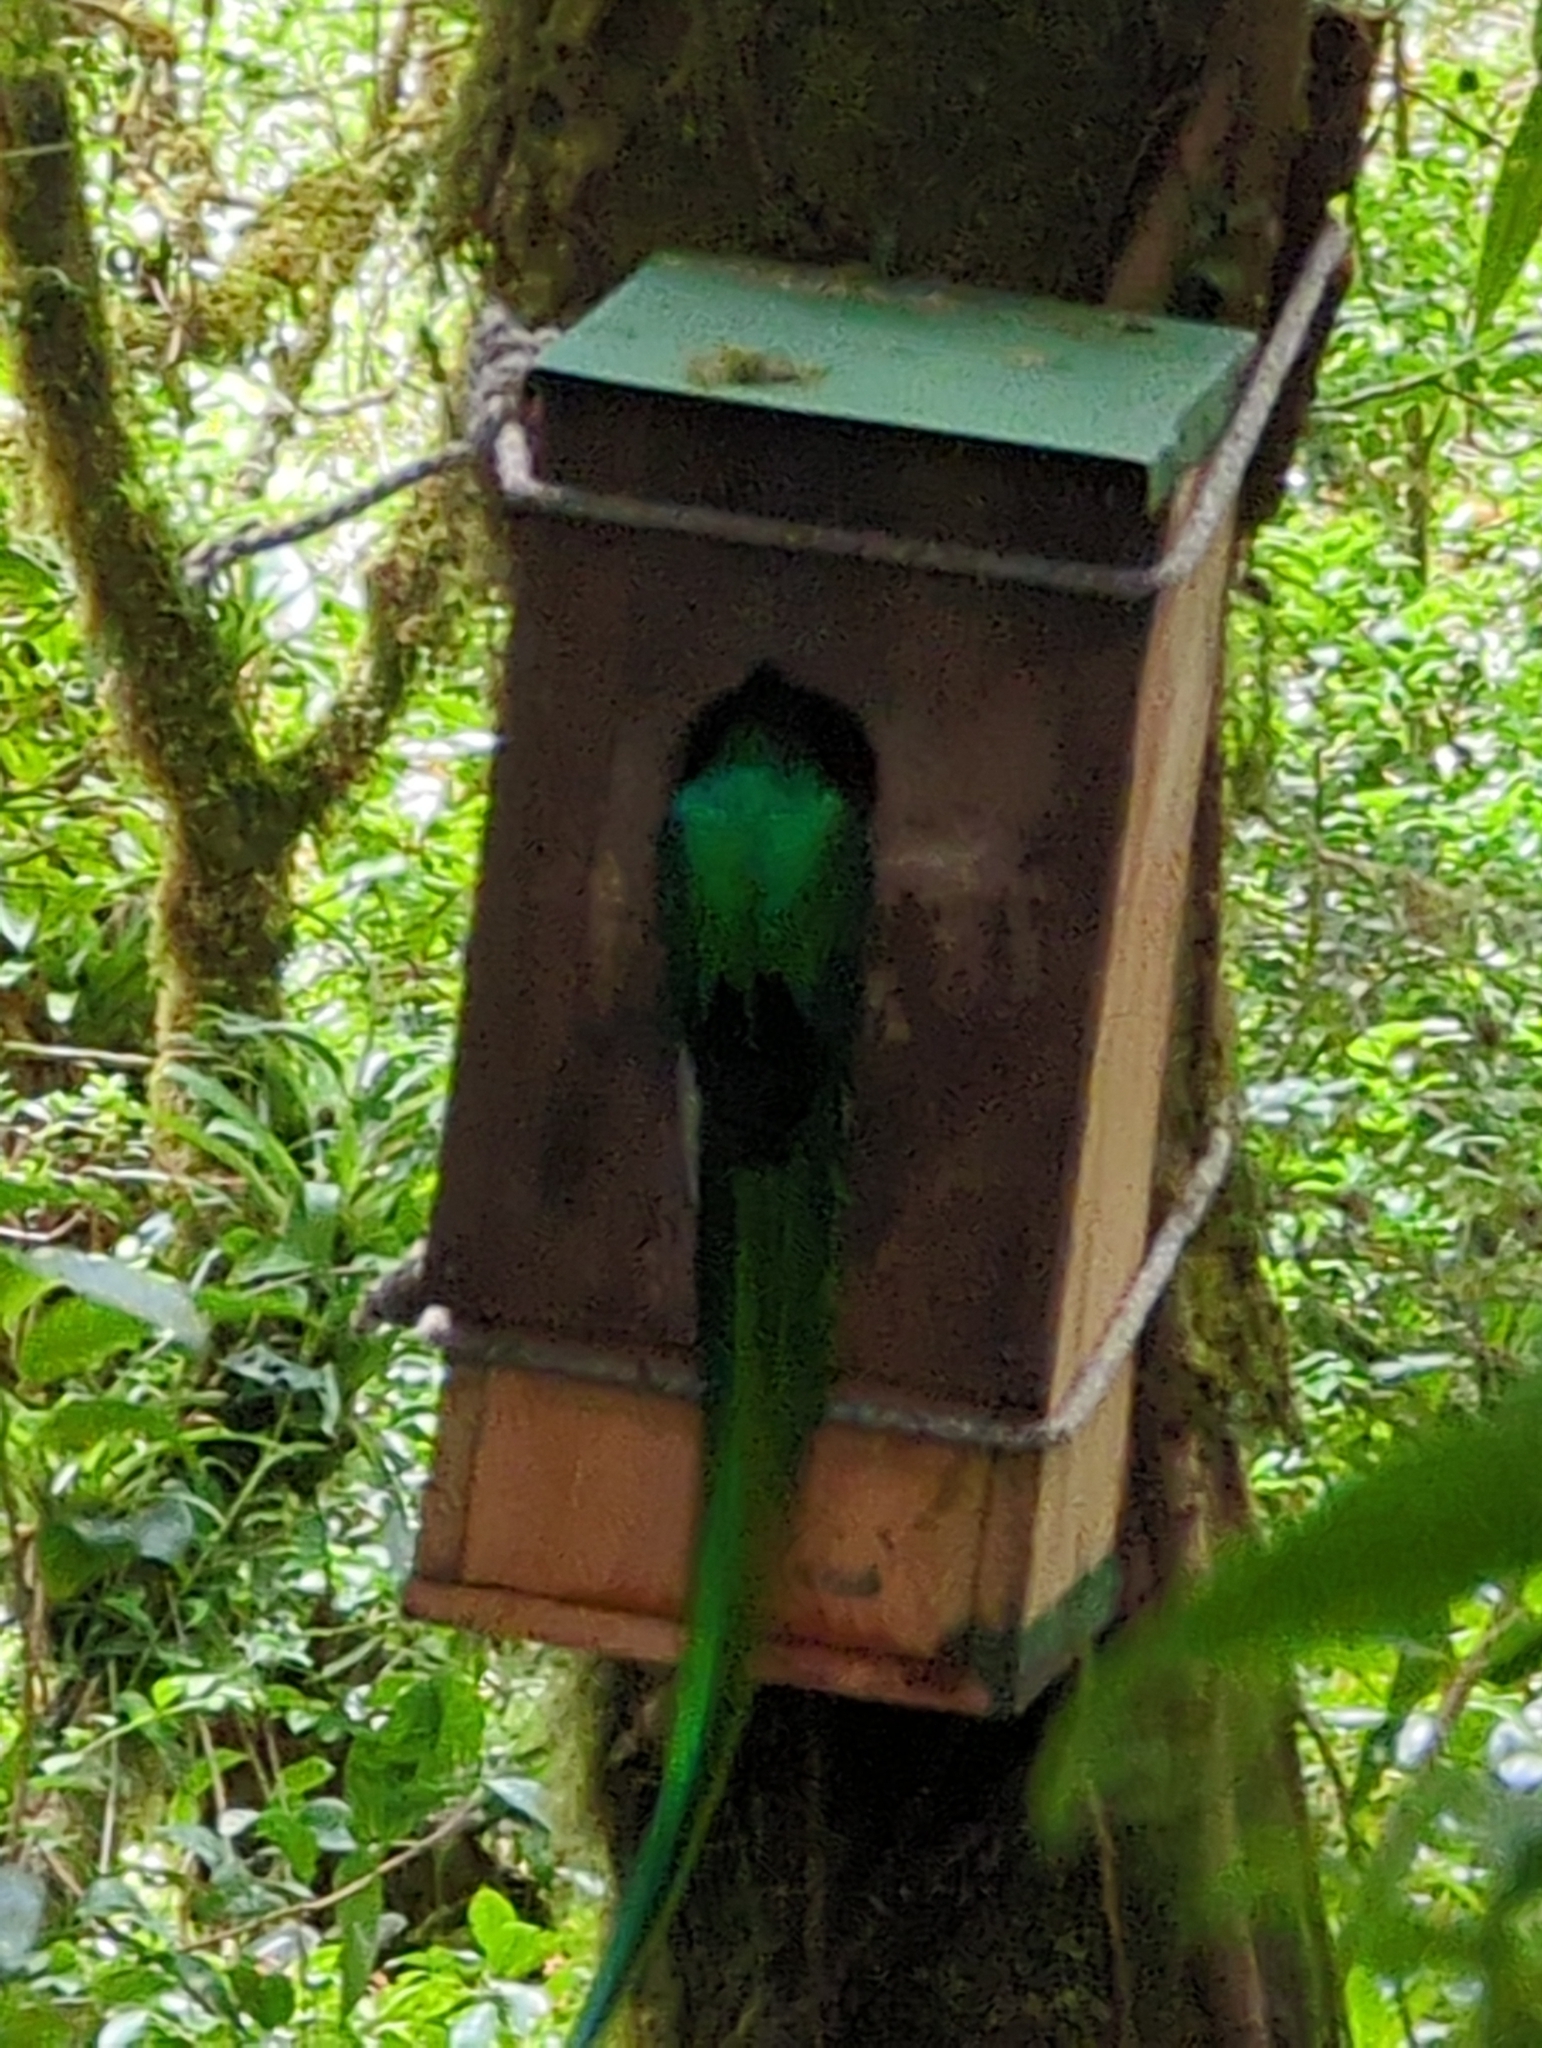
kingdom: Animalia
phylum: Chordata
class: Aves
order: Trogoniformes
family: Trogonidae
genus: Pharomachrus
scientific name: Pharomachrus mocinno
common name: Resplendent quetzal
